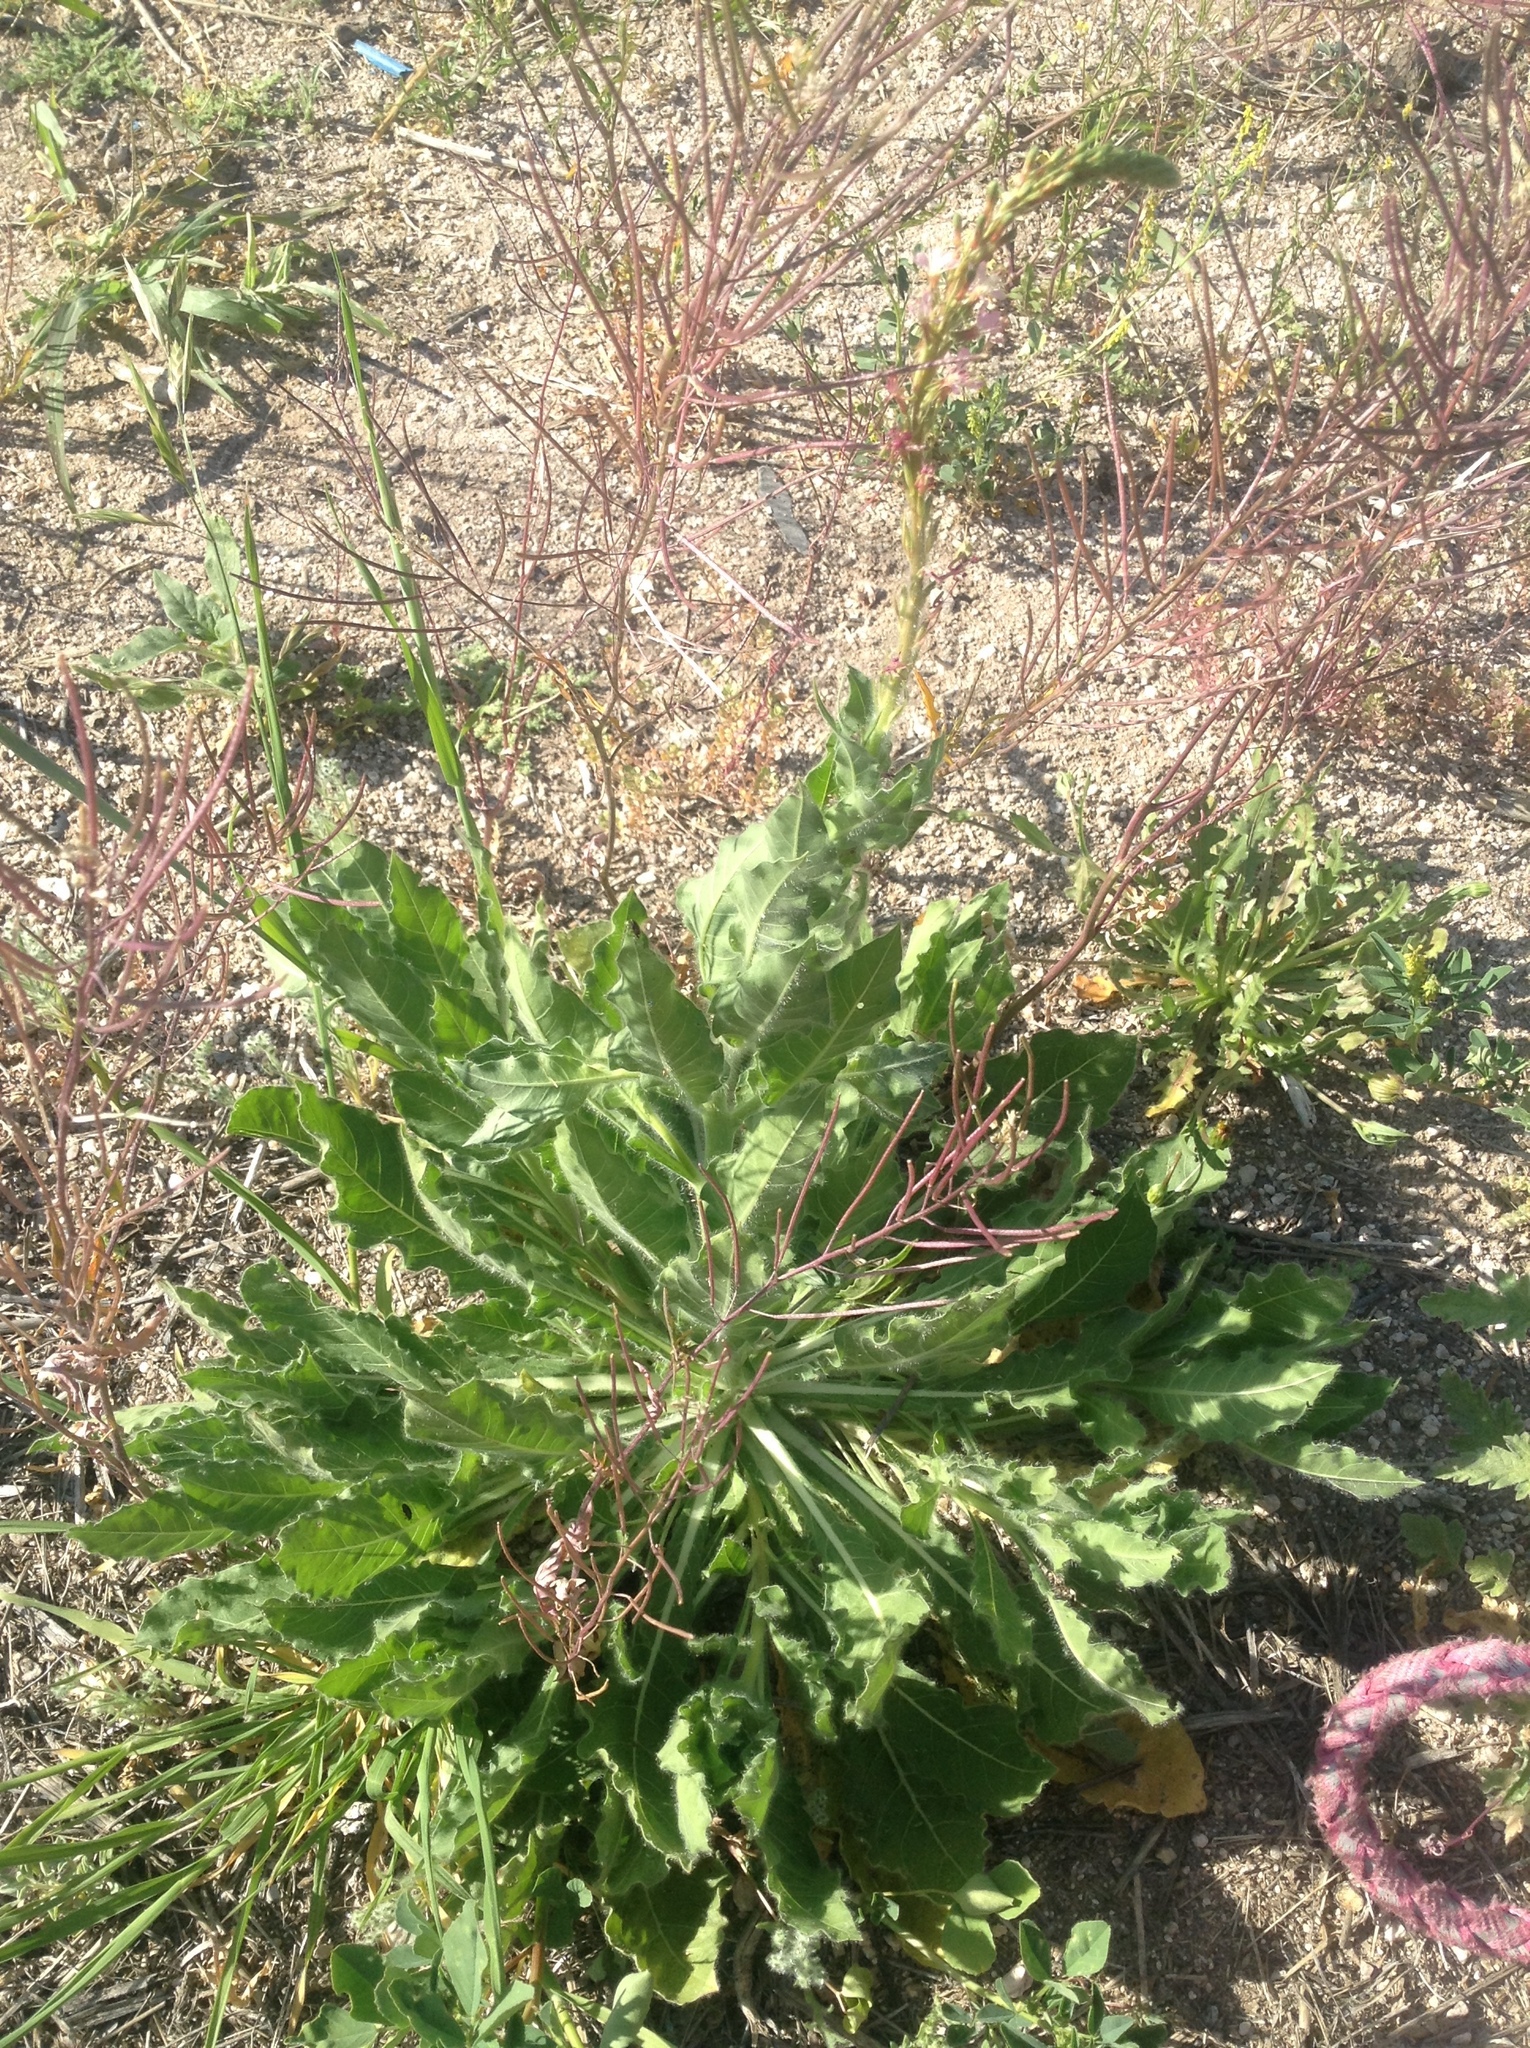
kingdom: Plantae
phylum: Tracheophyta
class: Magnoliopsida
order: Myrtales
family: Onagraceae
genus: Oenothera
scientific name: Oenothera curtiflora
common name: Velvetweed
